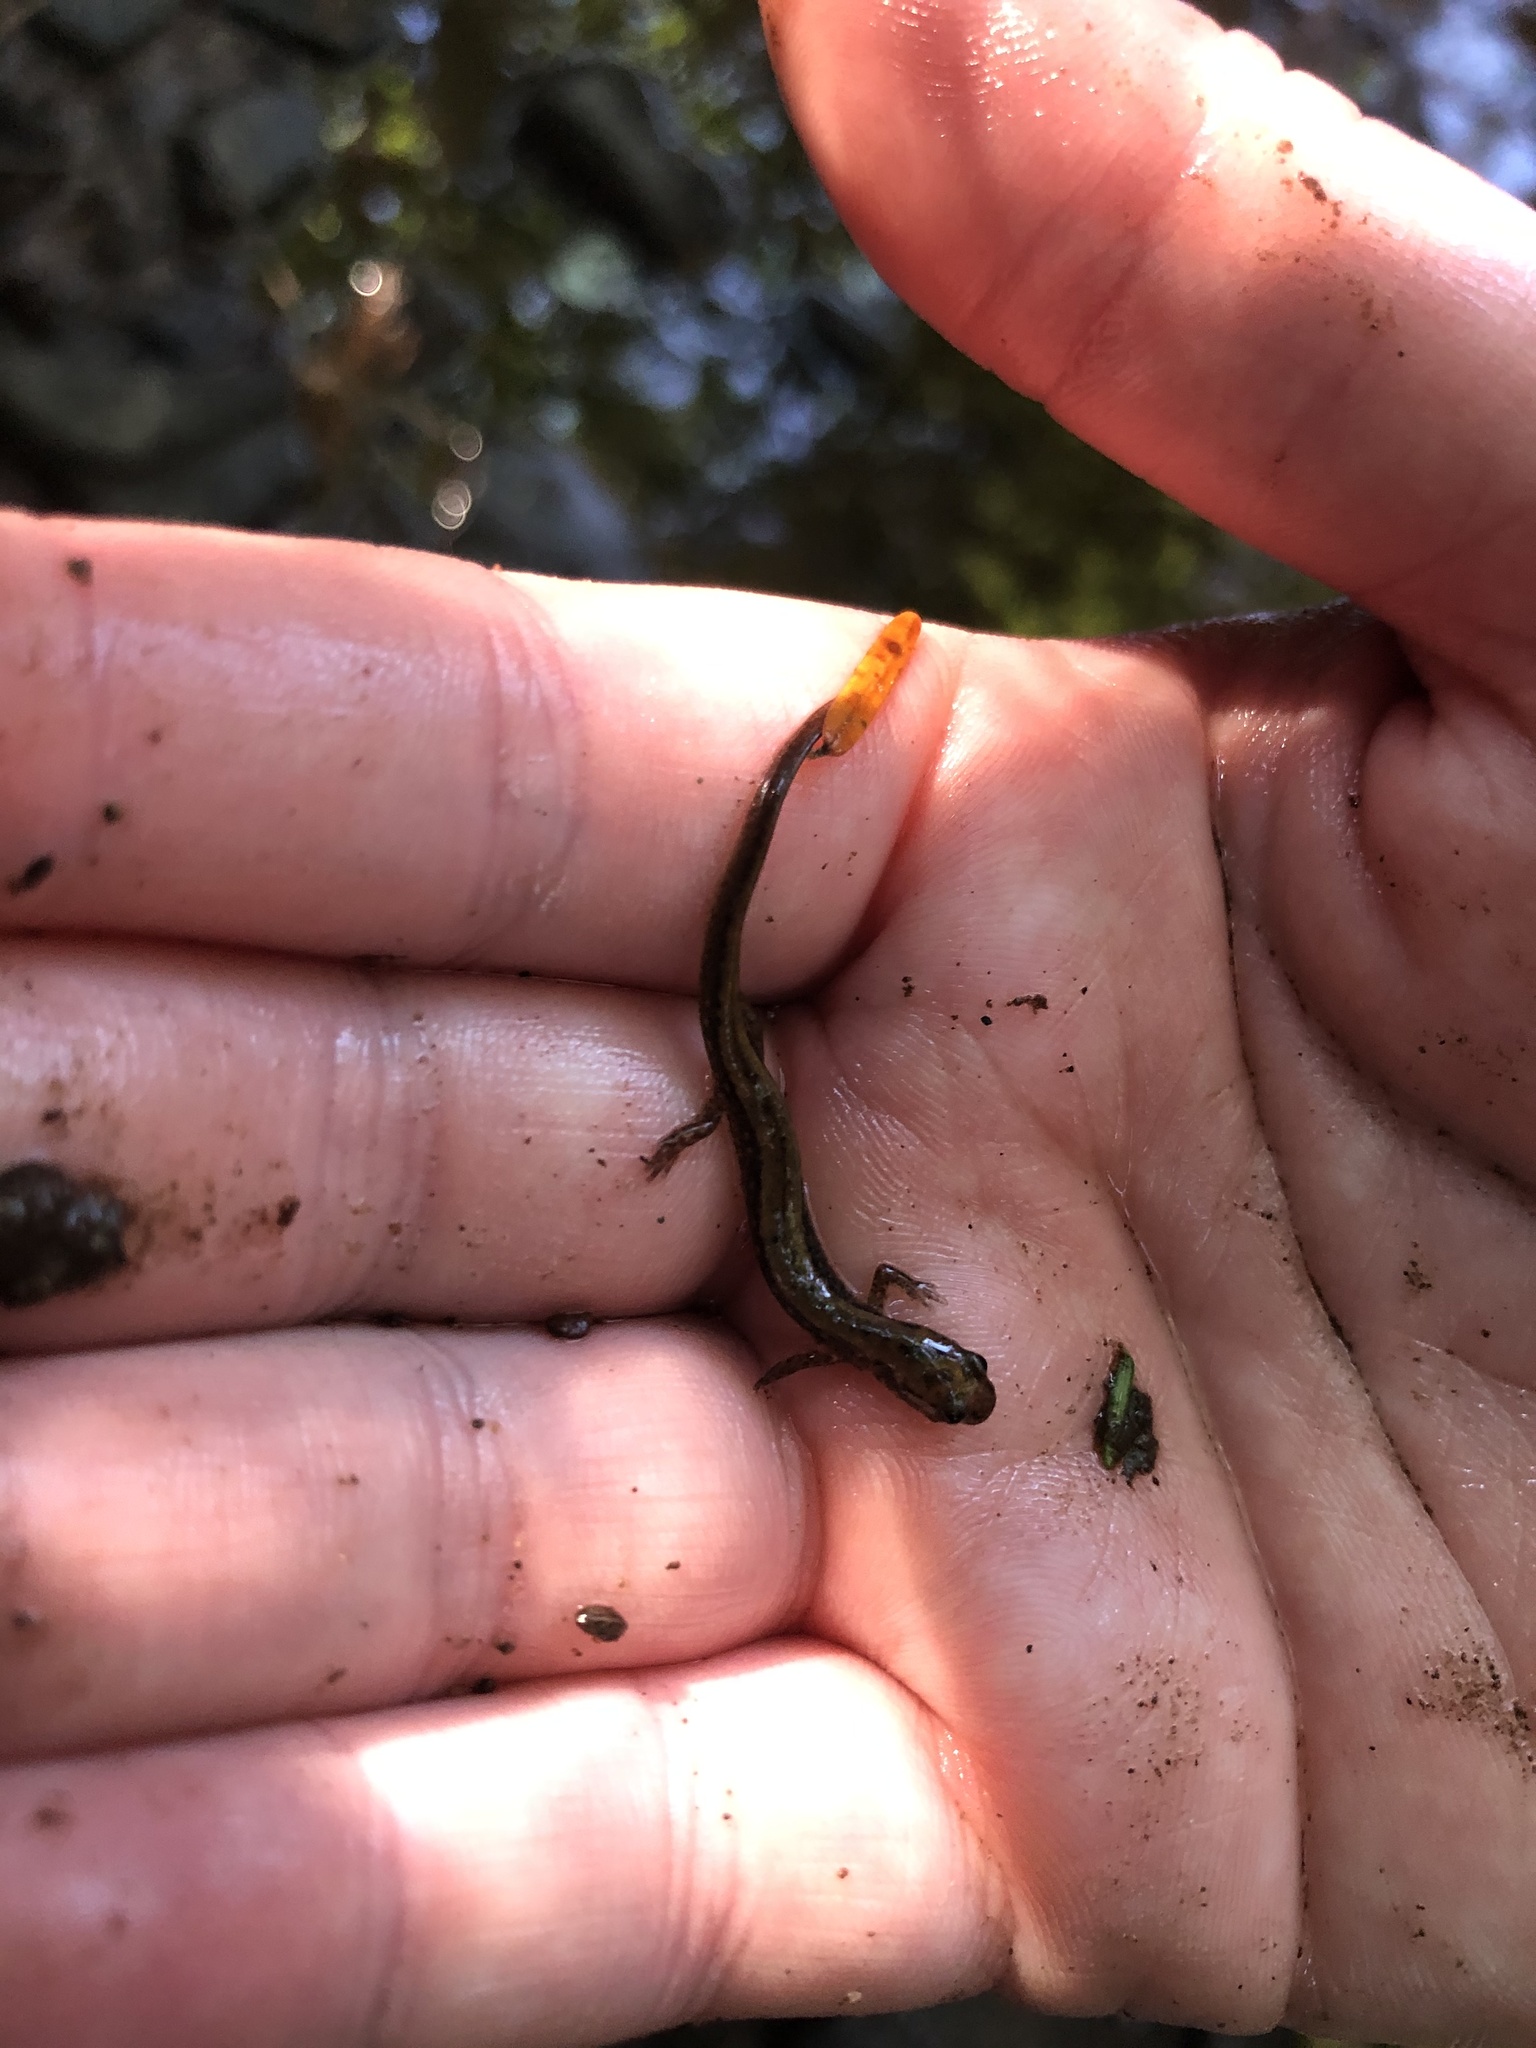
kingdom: Animalia
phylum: Chordata
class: Amphibia
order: Caudata
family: Plethodontidae
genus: Eurycea
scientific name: Eurycea bislineata
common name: Northern two-lined salamander
